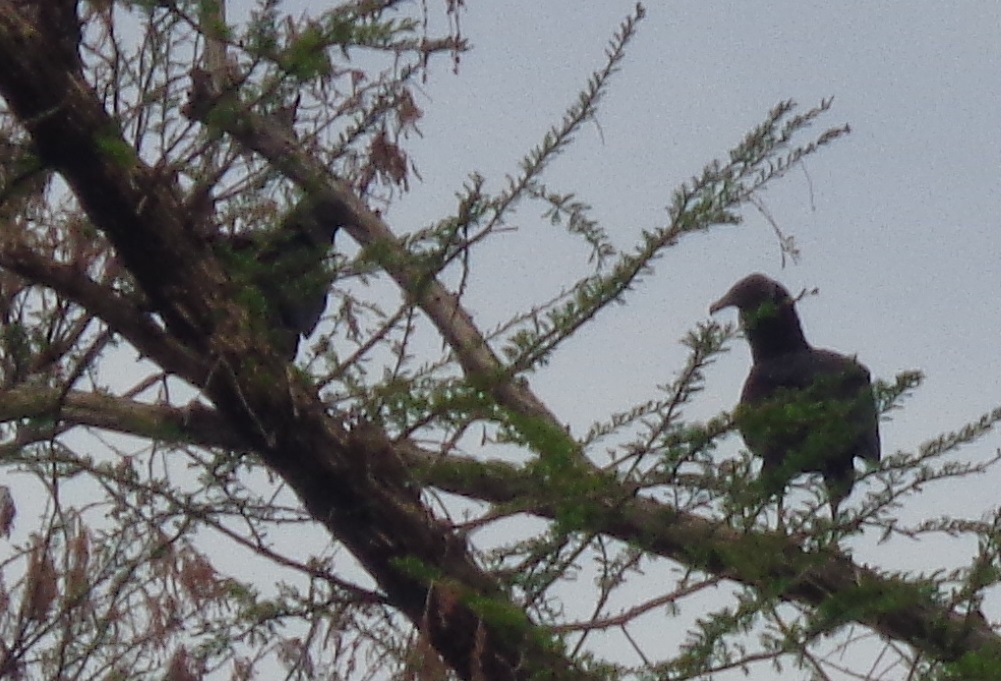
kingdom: Animalia
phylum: Chordata
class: Aves
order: Accipitriformes
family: Cathartidae
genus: Coragyps
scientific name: Coragyps atratus
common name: Black vulture
